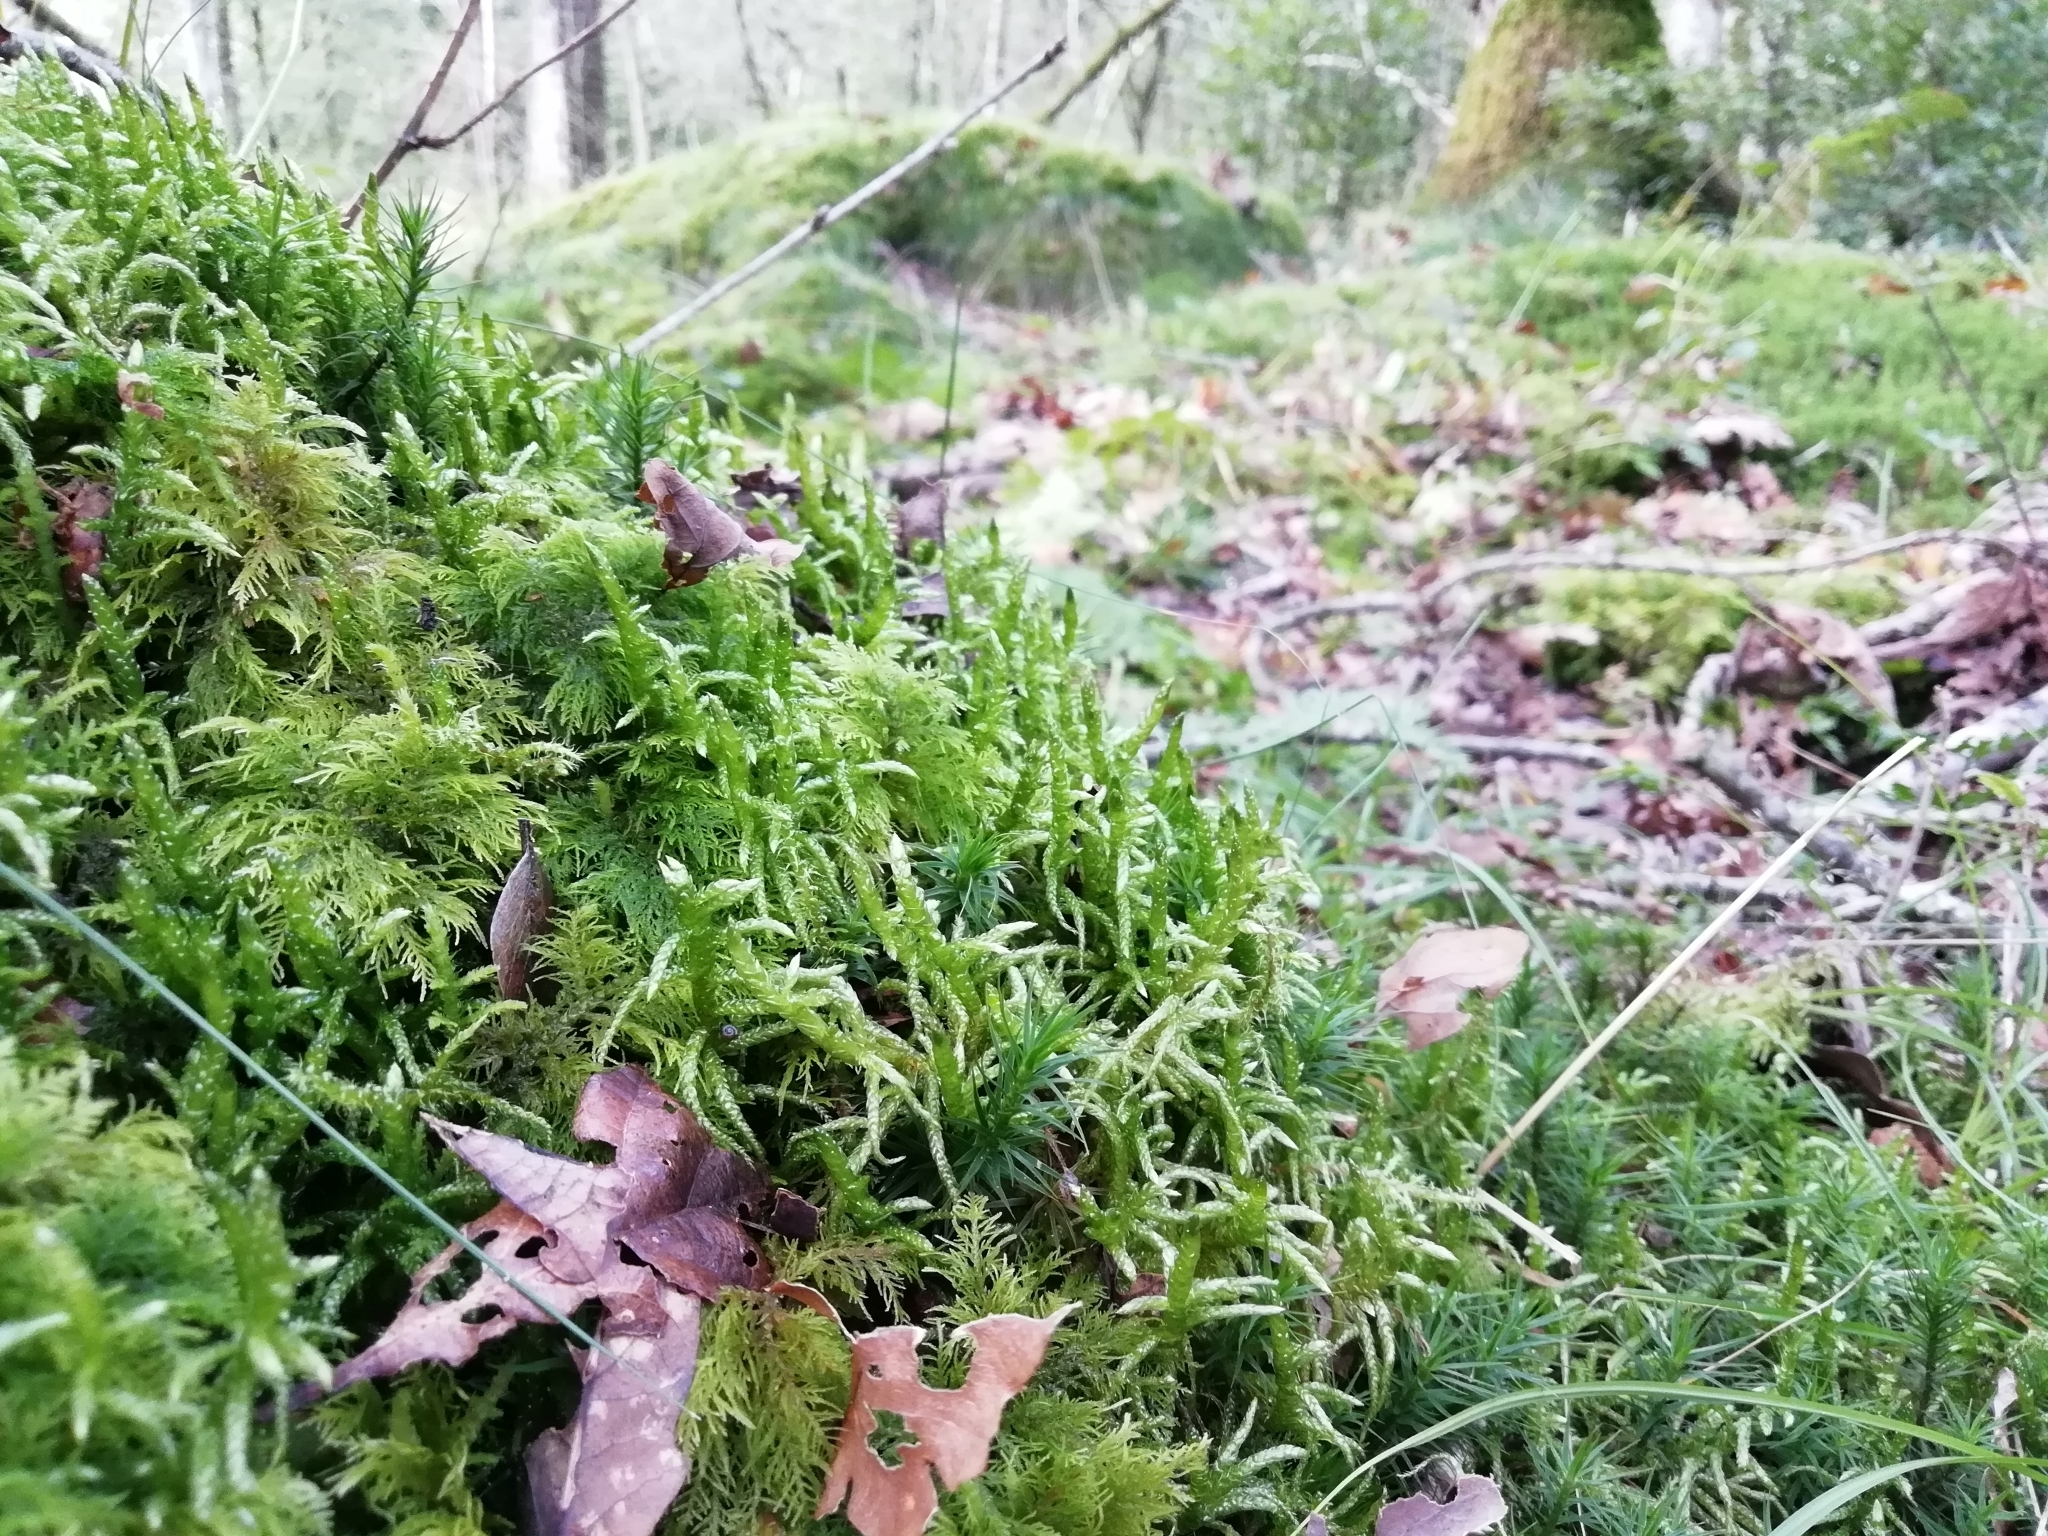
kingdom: Plantae
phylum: Bryophyta
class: Bryopsida
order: Hypnales
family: Brachytheciaceae
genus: Pseudoscleropodium
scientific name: Pseudoscleropodium purum
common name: Neat feather-moss
